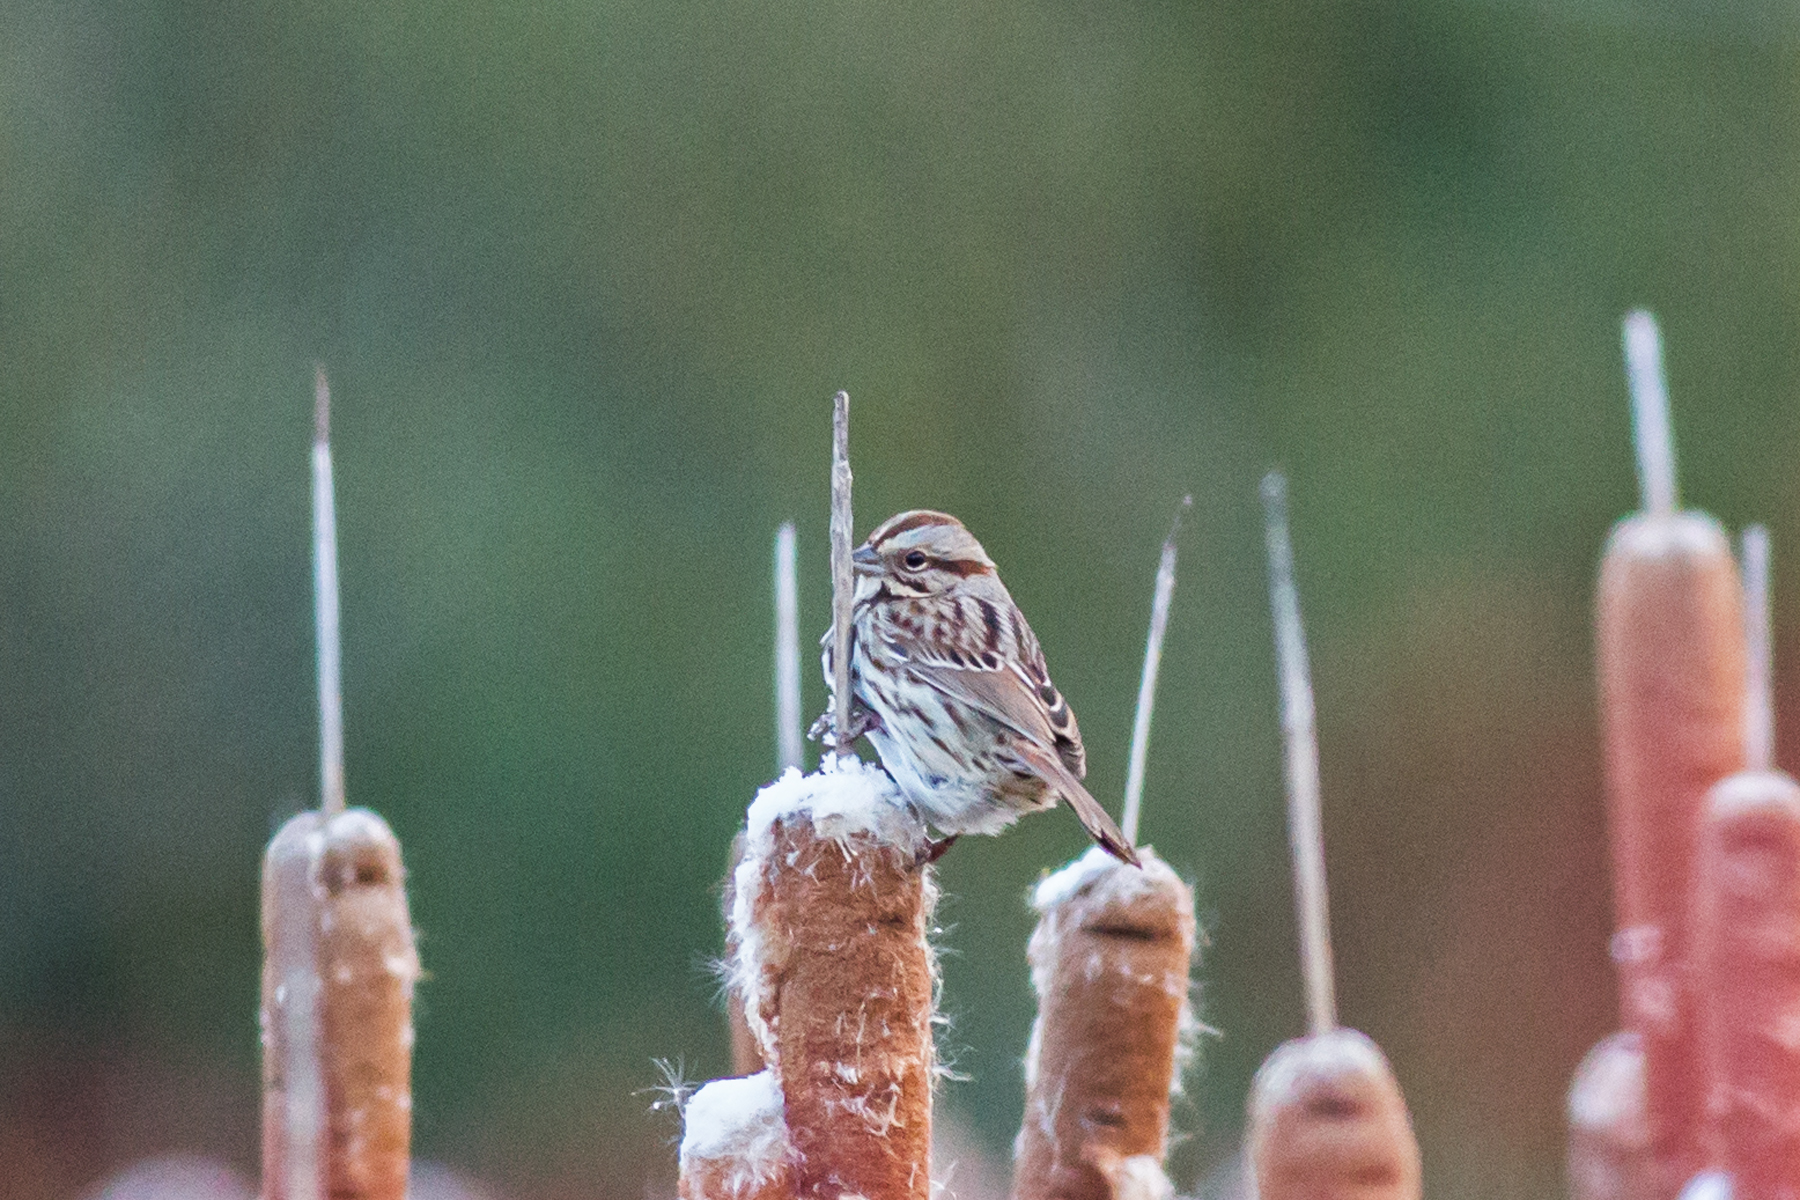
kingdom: Animalia
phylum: Chordata
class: Aves
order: Passeriformes
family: Passerellidae
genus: Melospiza
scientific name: Melospiza melodia
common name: Song sparrow
